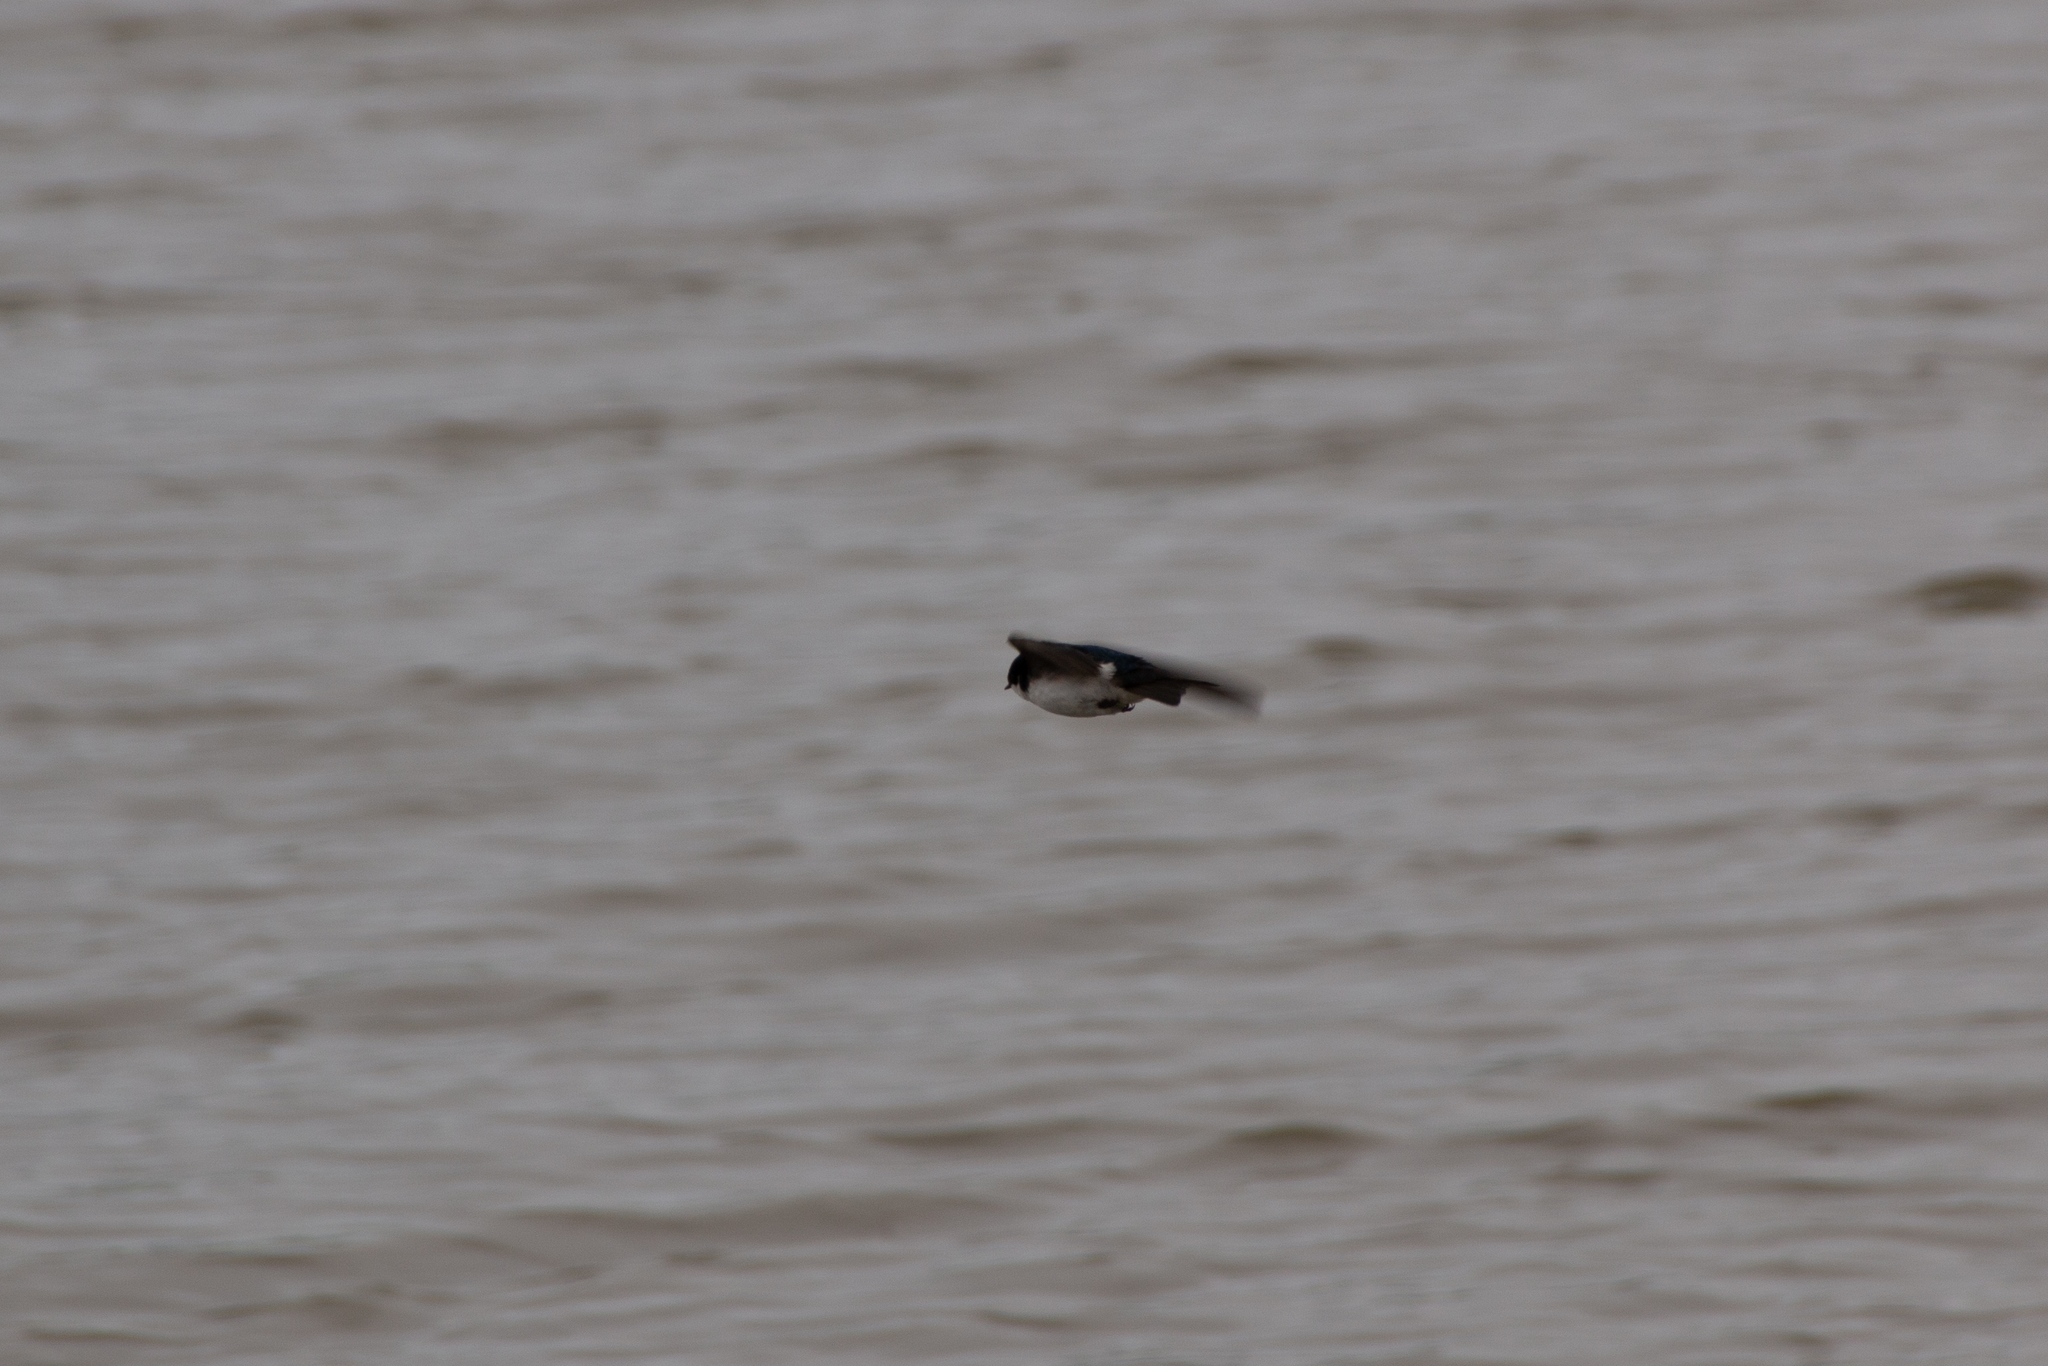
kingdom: Animalia
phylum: Chordata
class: Aves
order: Passeriformes
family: Hirundinidae
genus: Tachycineta
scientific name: Tachycineta bicolor
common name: Tree swallow
